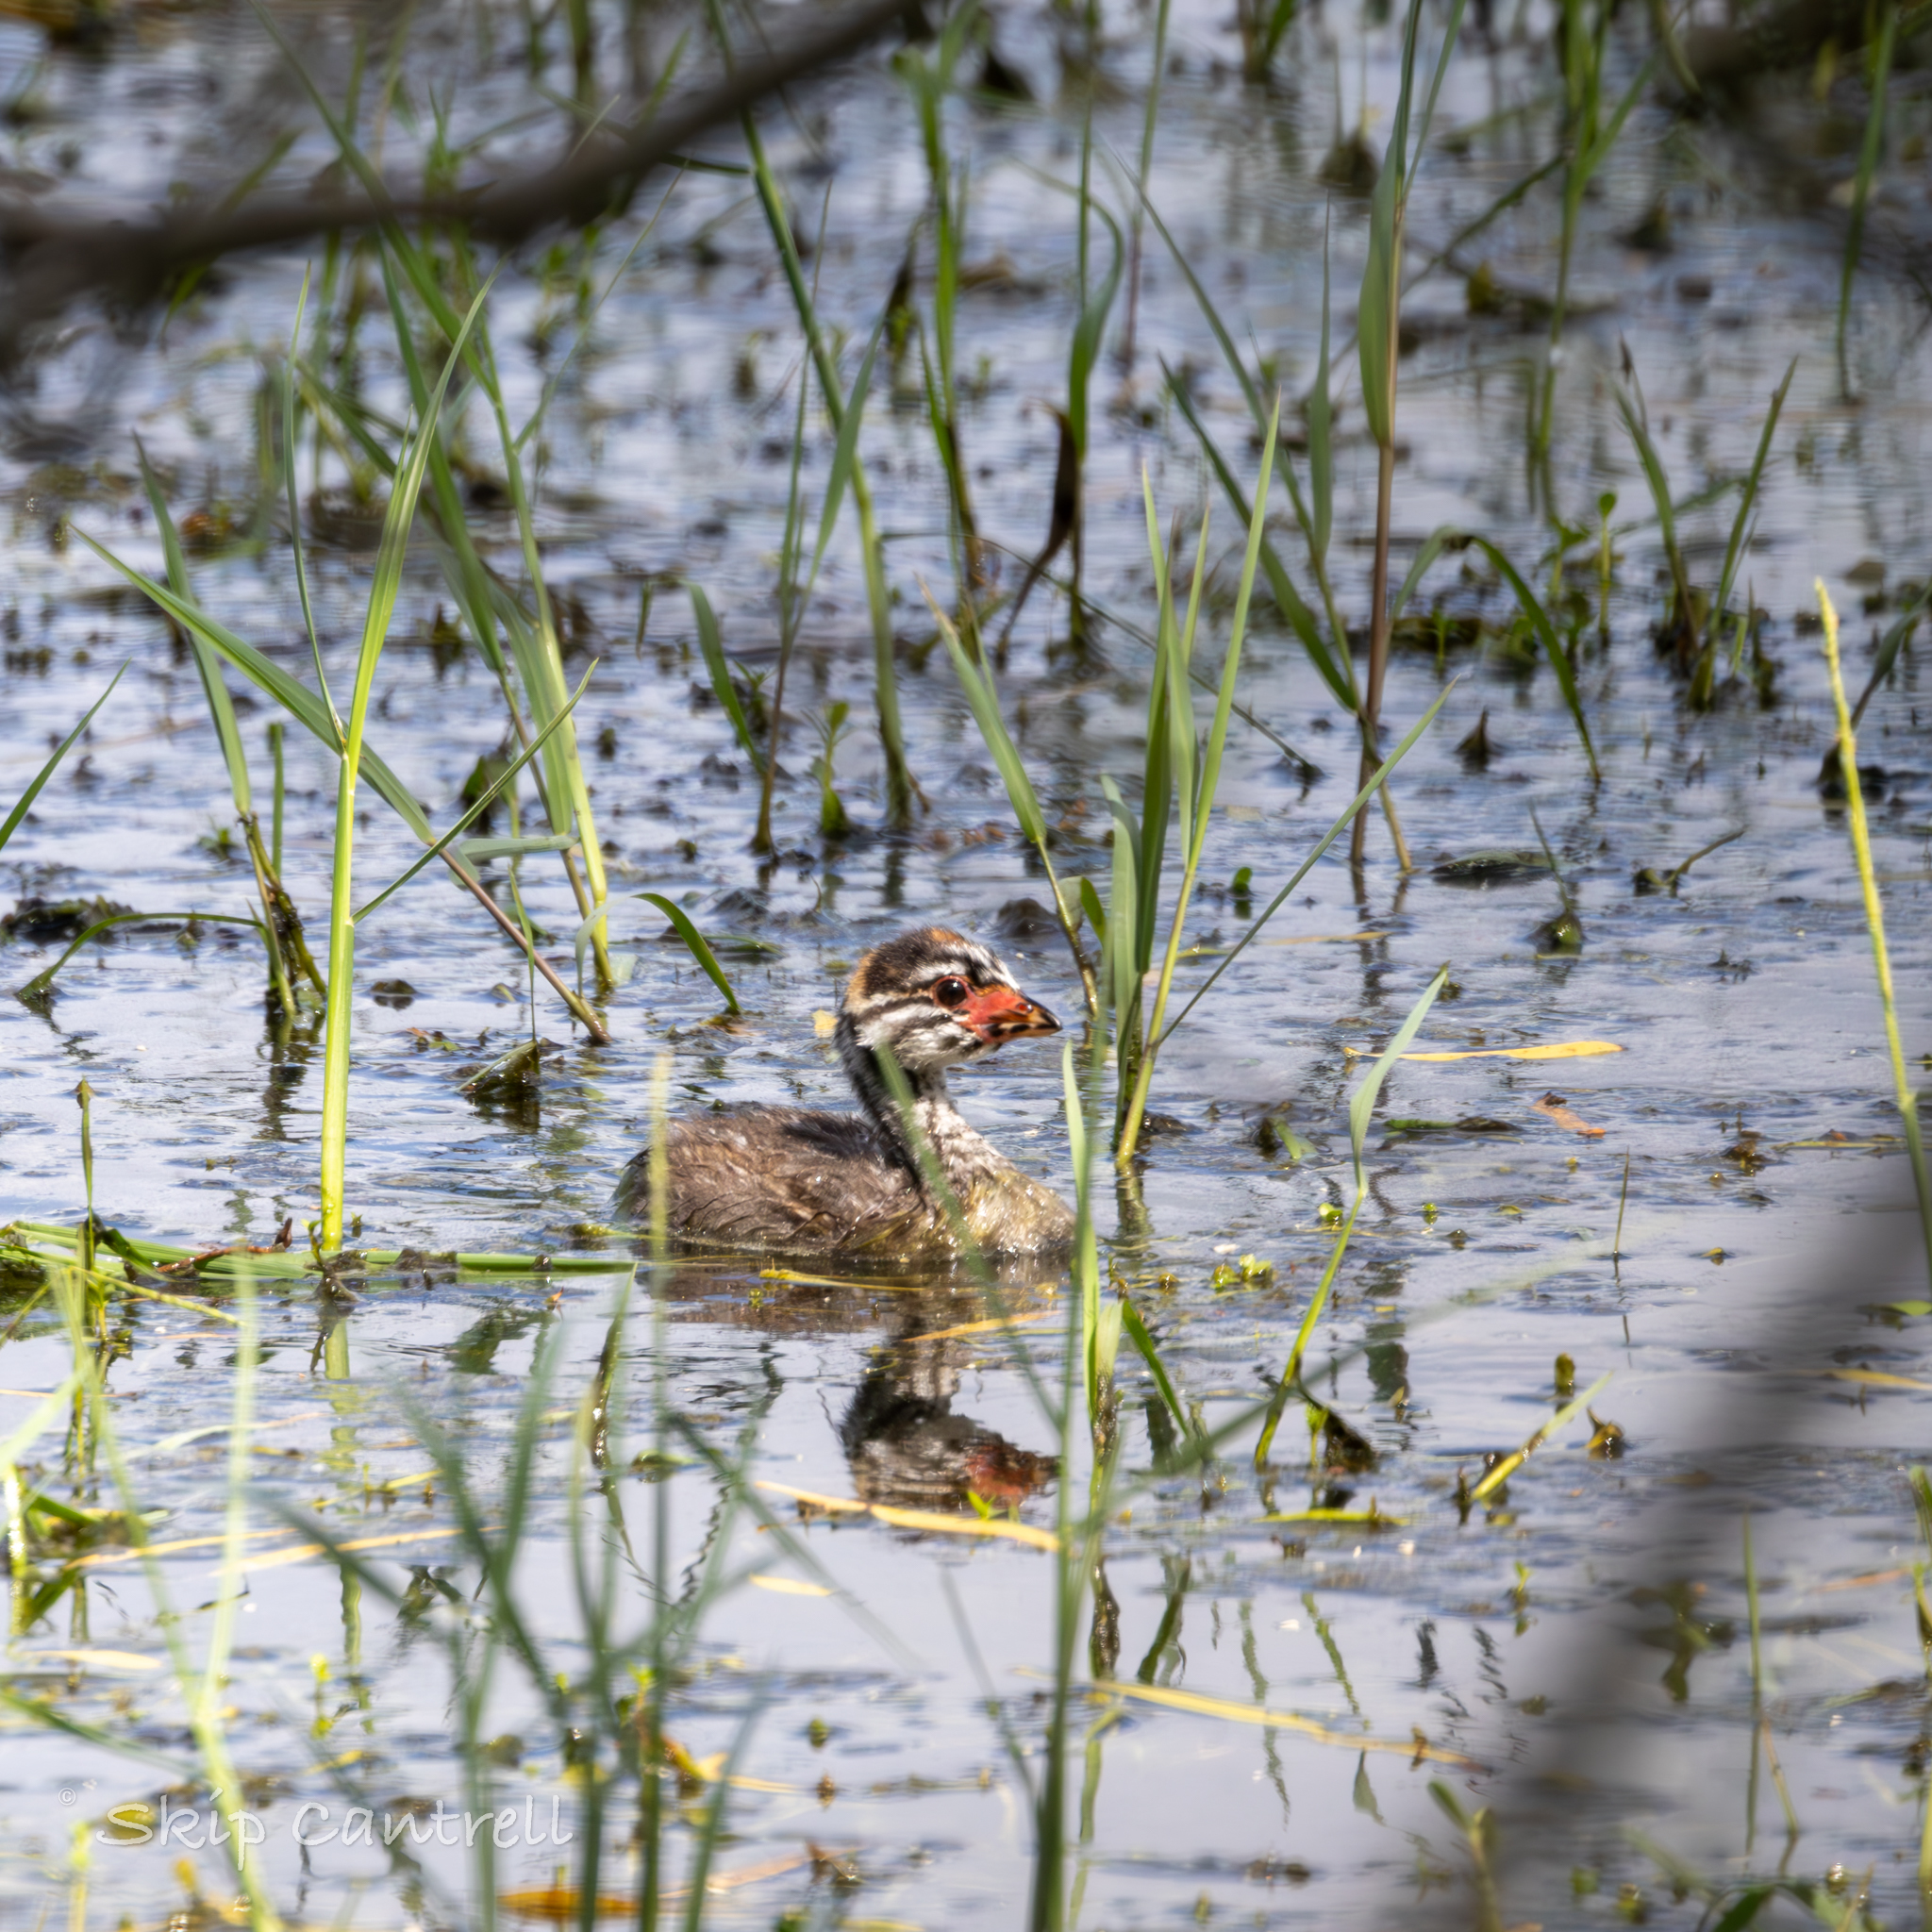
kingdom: Animalia
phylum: Chordata
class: Aves
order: Podicipediformes
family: Podicipedidae
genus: Podilymbus
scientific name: Podilymbus podiceps
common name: Pied-billed grebe
